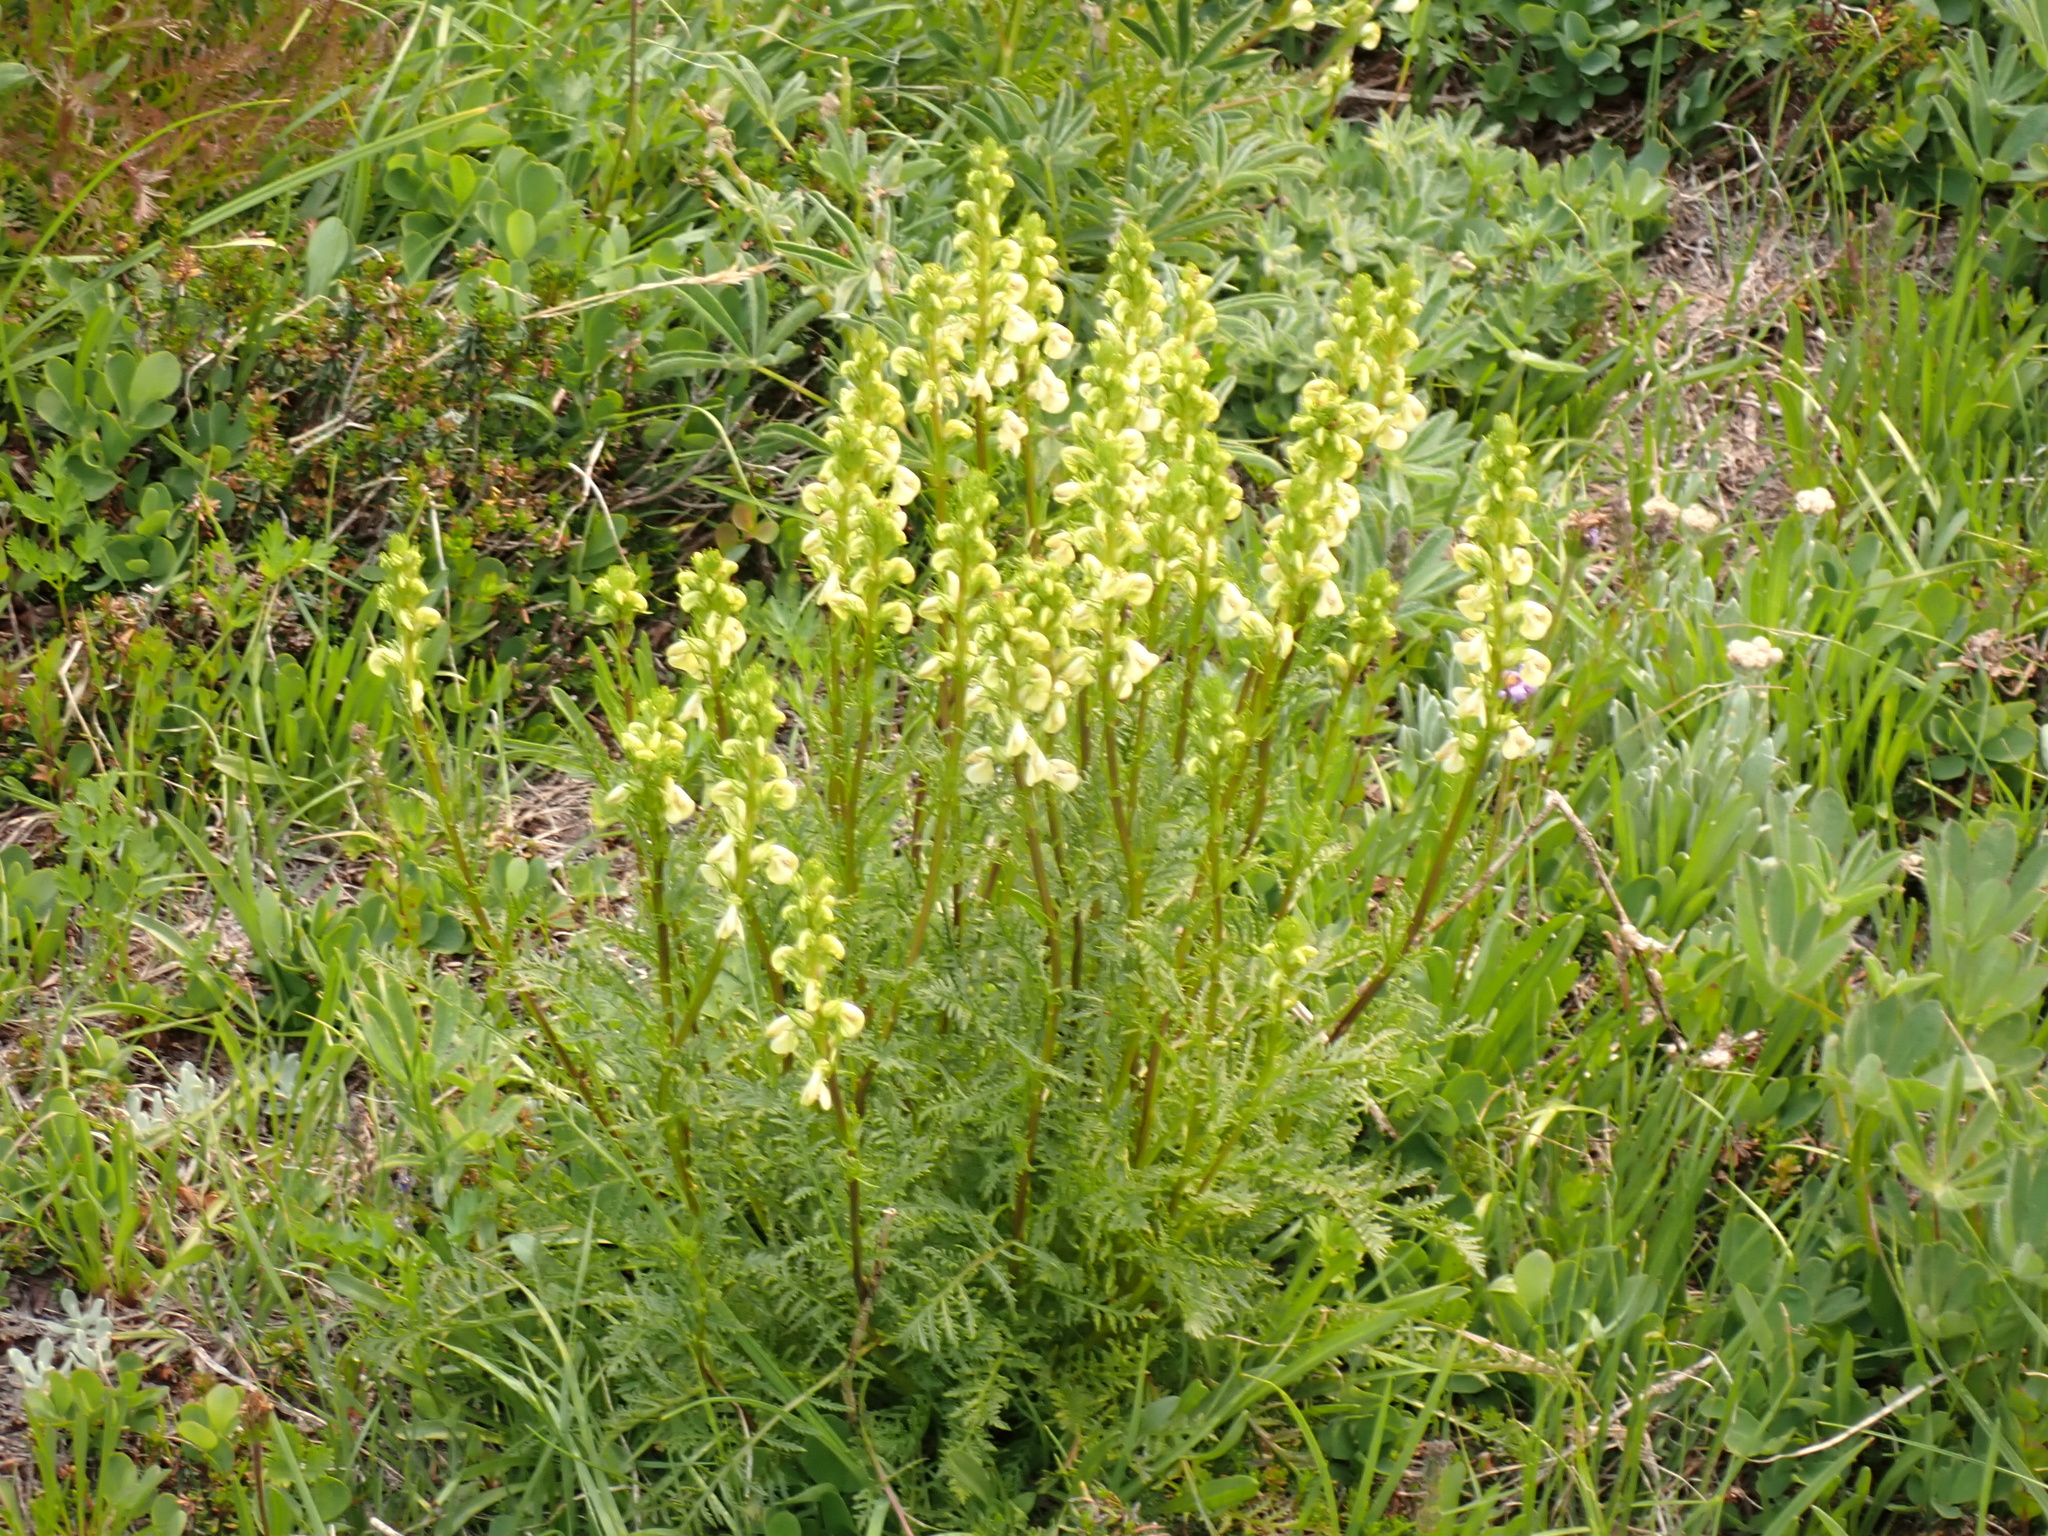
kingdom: Plantae
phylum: Tracheophyta
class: Magnoliopsida
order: Lamiales
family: Orobanchaceae
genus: Pedicularis
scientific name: Pedicularis contorta
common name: Coiled lousewort
